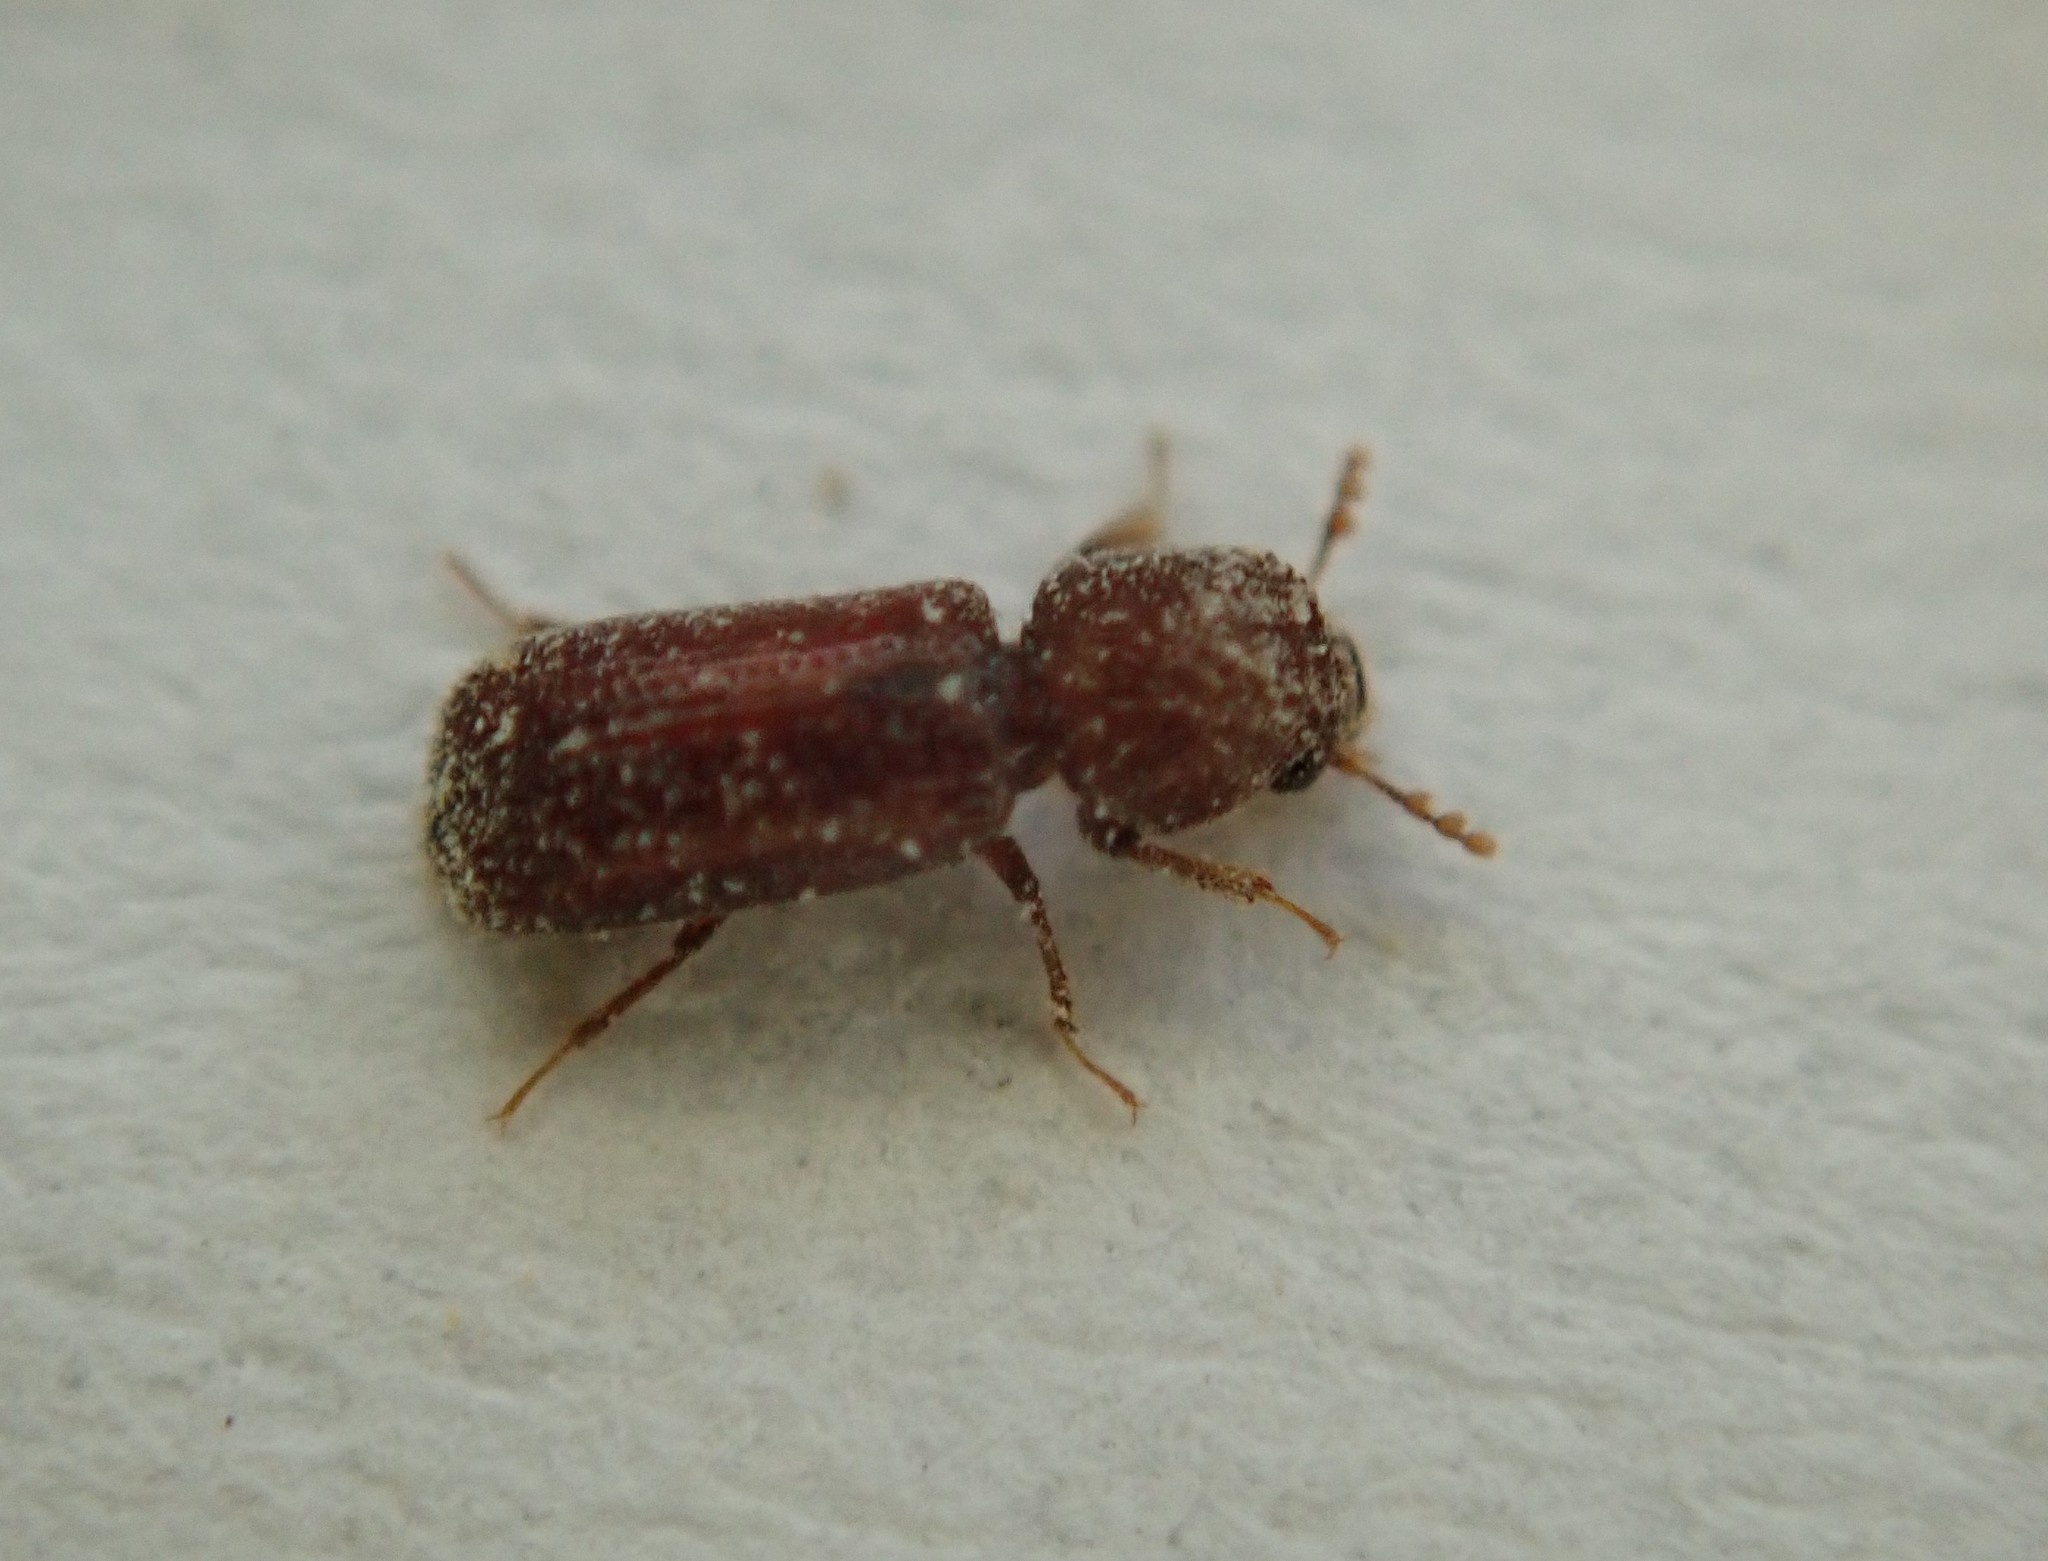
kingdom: Animalia
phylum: Arthropoda
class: Insecta
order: Coleoptera
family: Bostrichidae
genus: Rhyzopertha
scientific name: Rhyzopertha dominica
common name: Lesser grain borer
